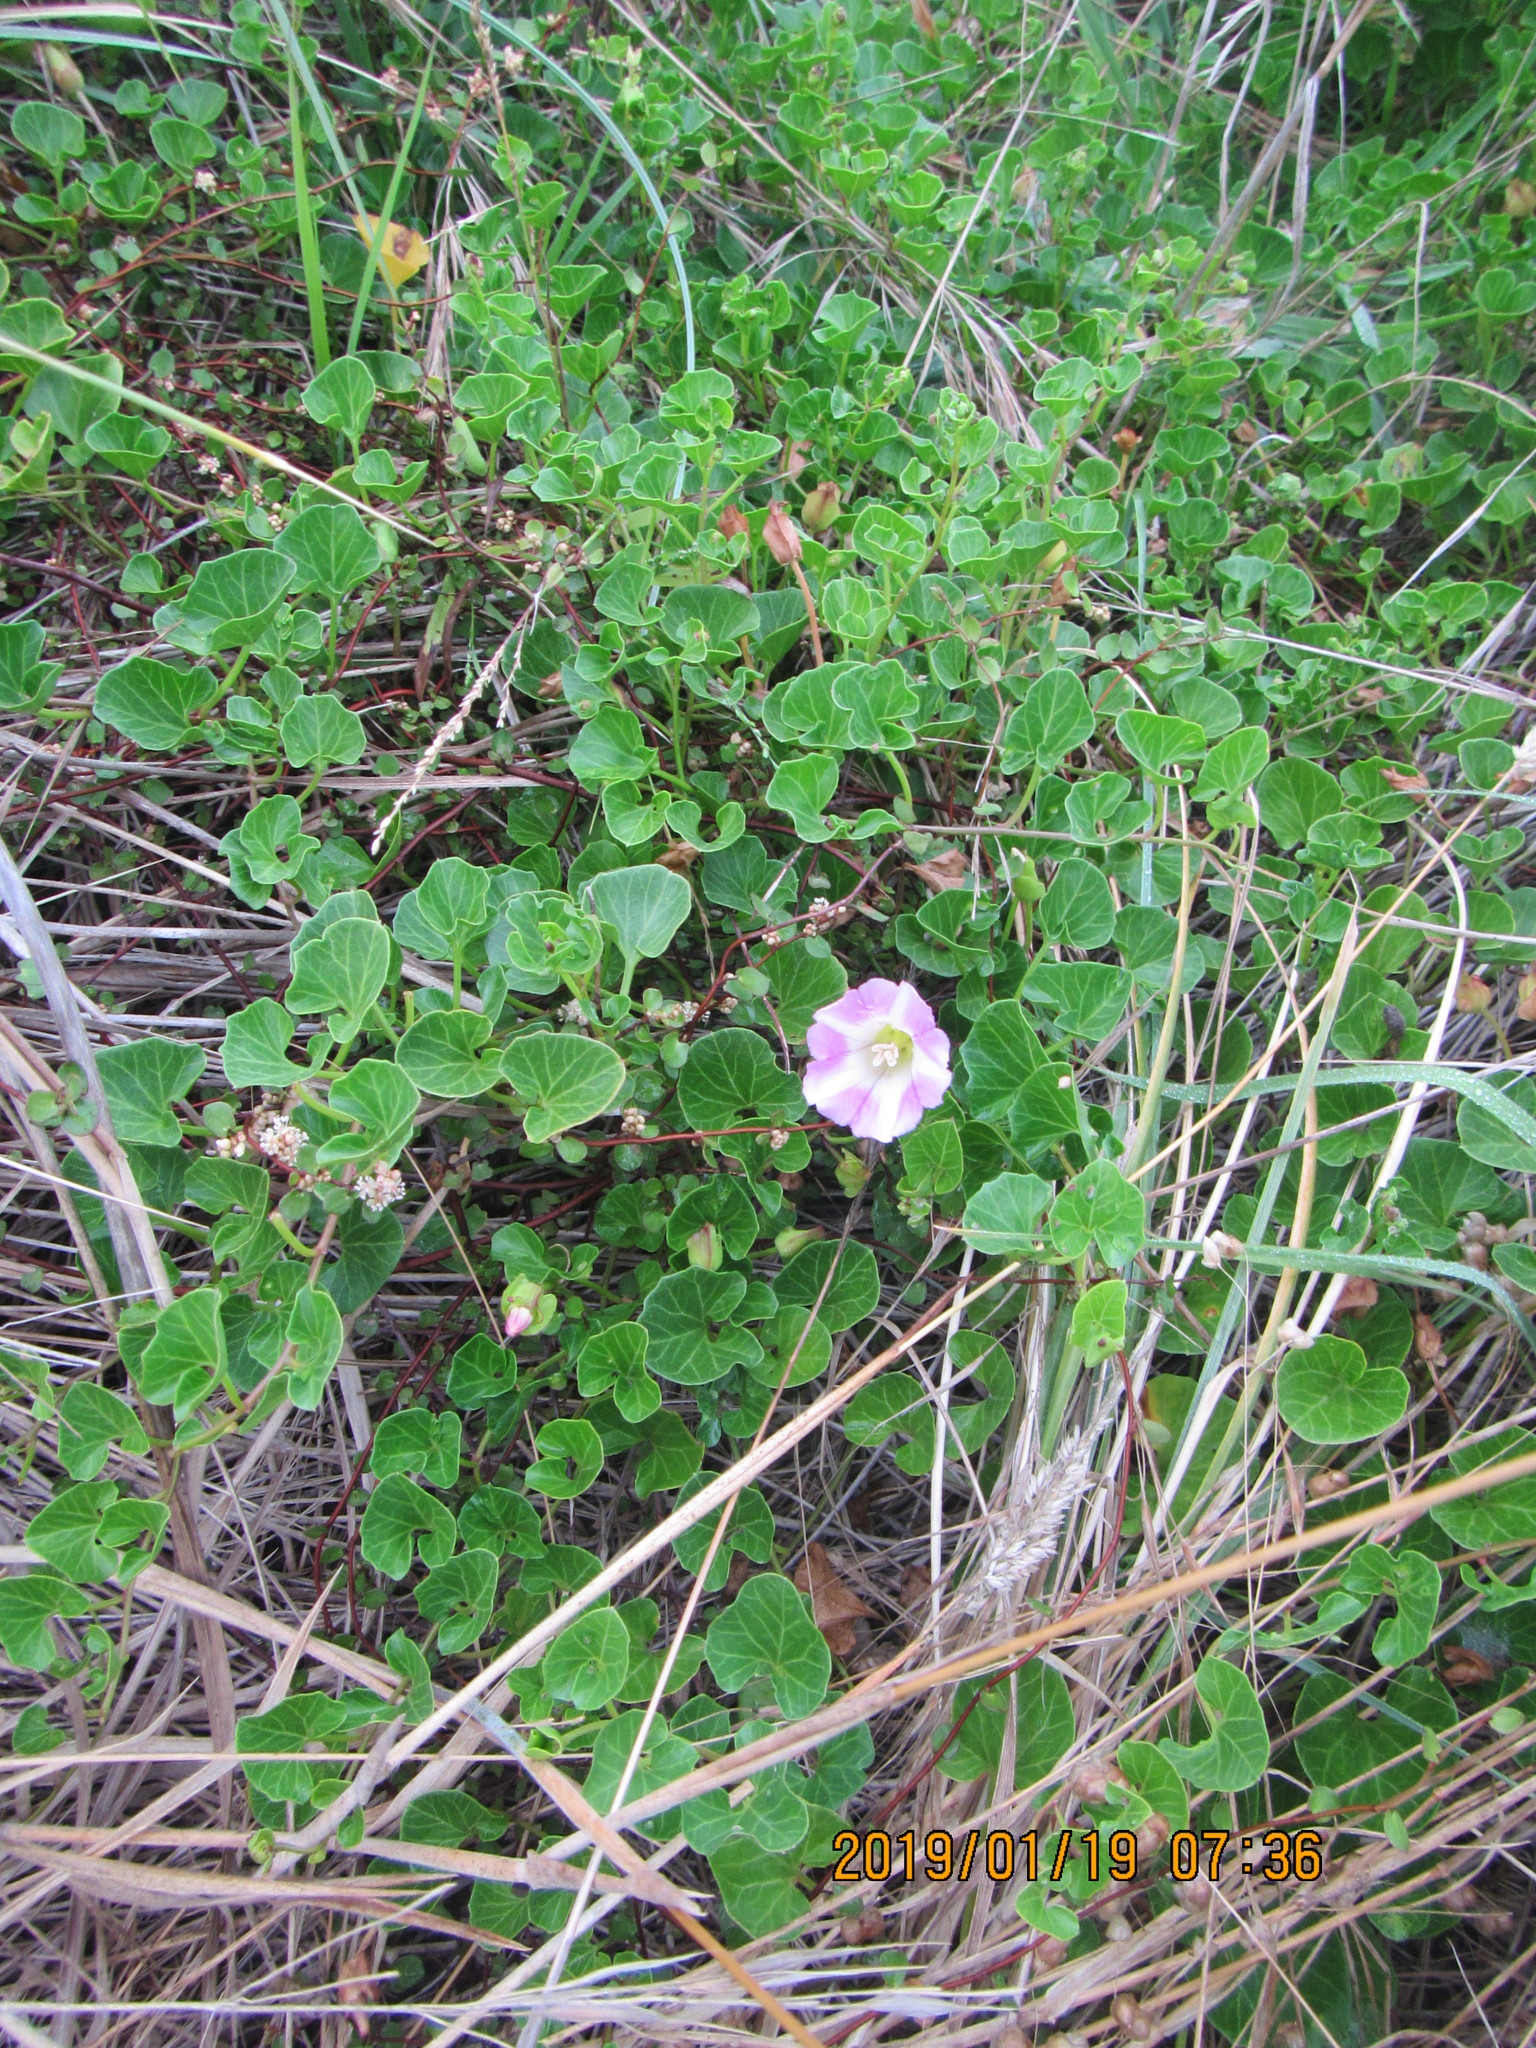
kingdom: Plantae
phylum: Tracheophyta
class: Magnoliopsida
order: Solanales
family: Convolvulaceae
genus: Calystegia
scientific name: Calystegia soldanella
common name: Sea bindweed
